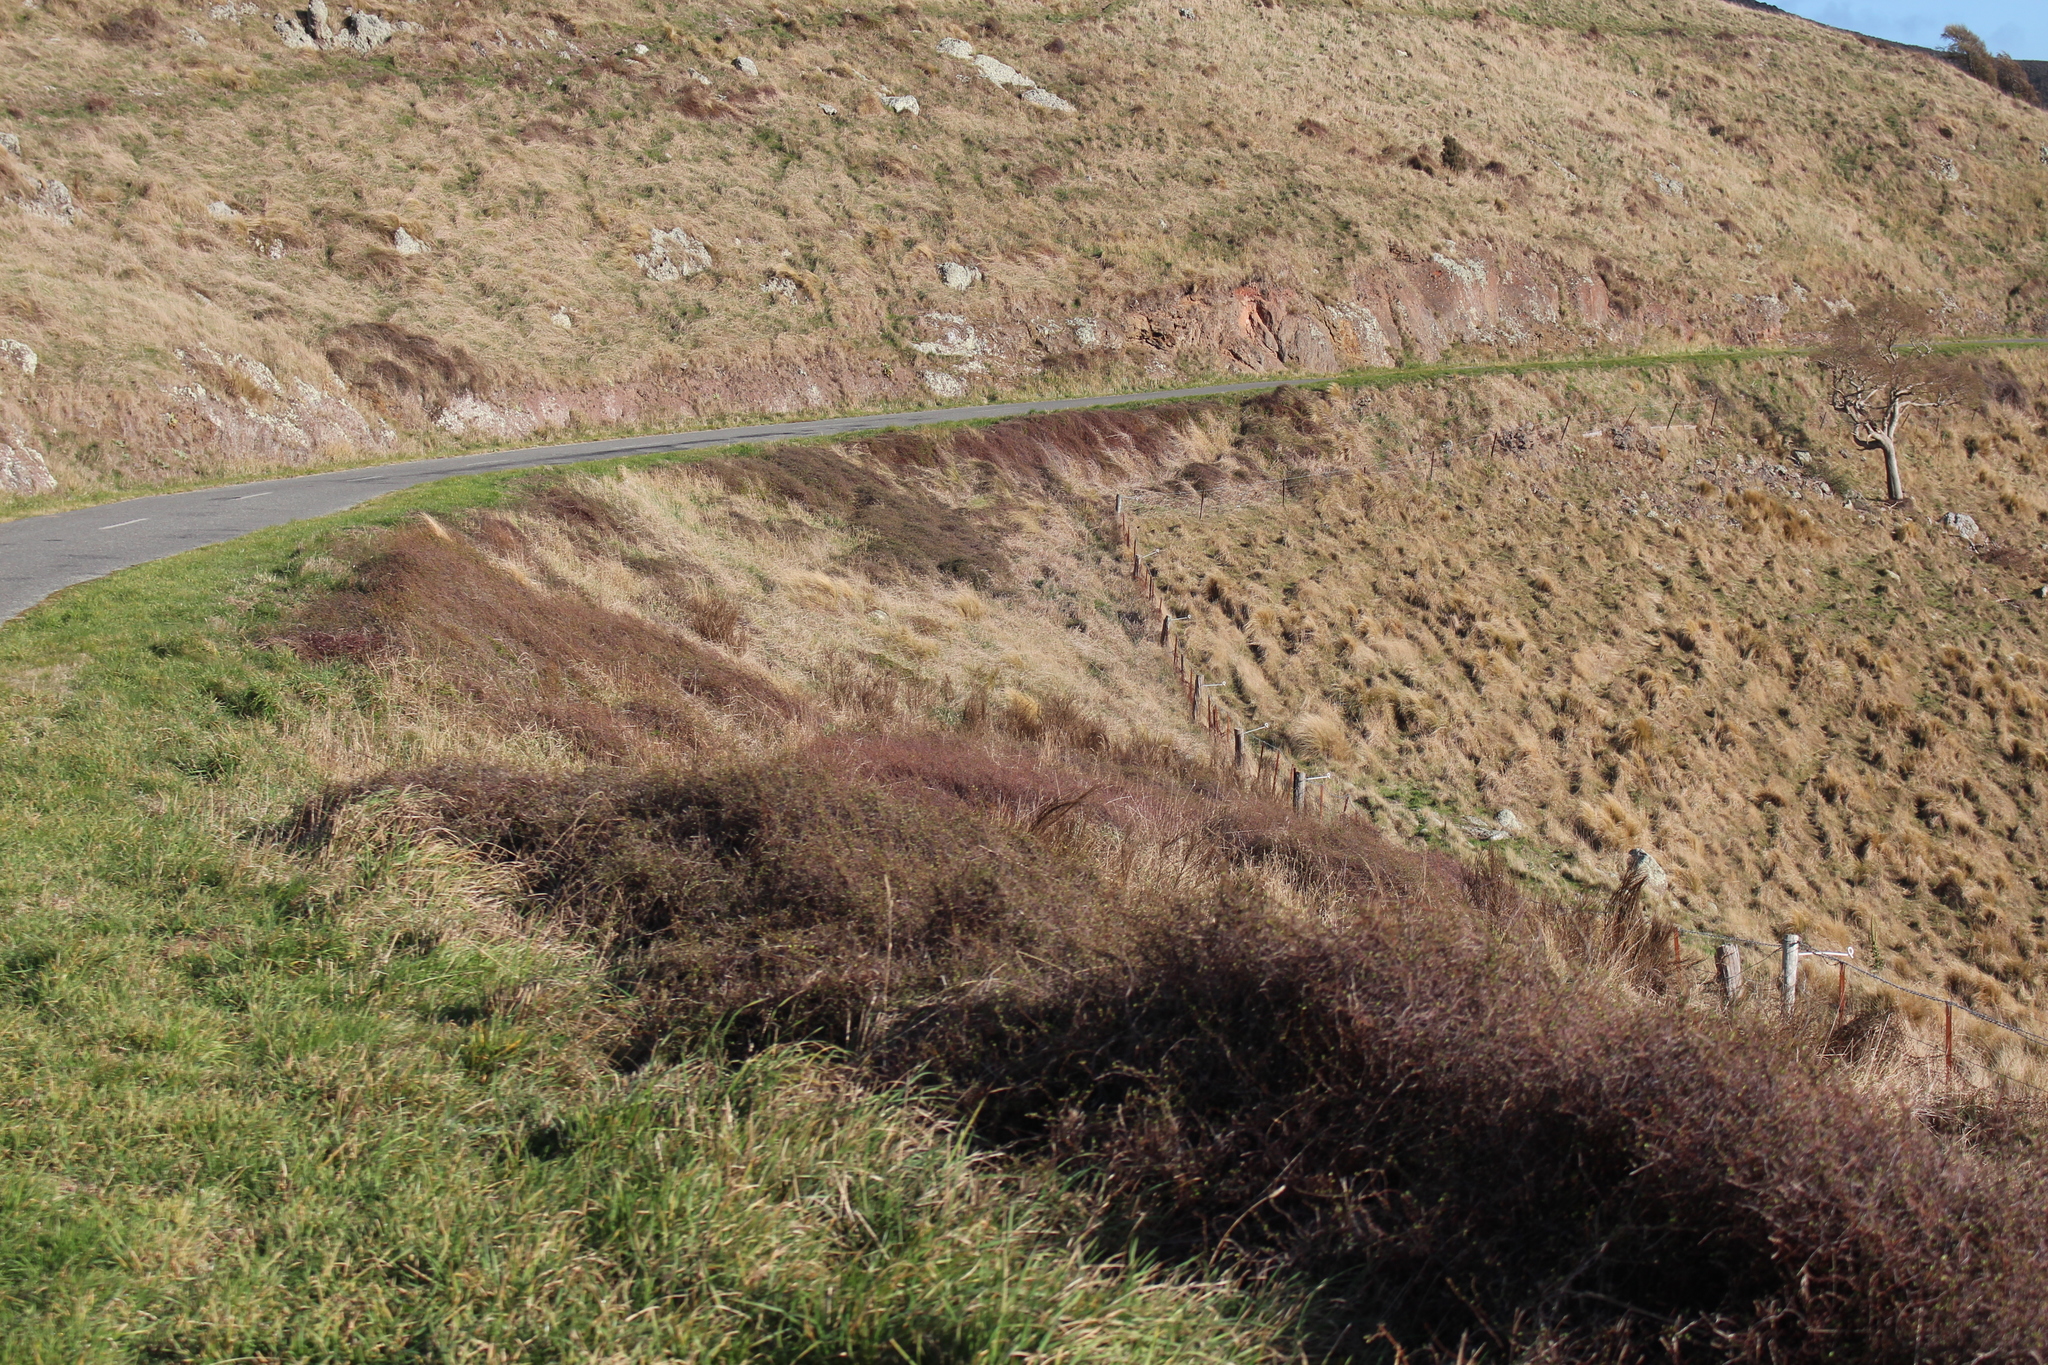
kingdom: Plantae
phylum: Tracheophyta
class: Magnoliopsida
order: Caryophyllales
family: Polygonaceae
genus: Muehlenbeckia
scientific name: Muehlenbeckia complexa
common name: Wireplant
